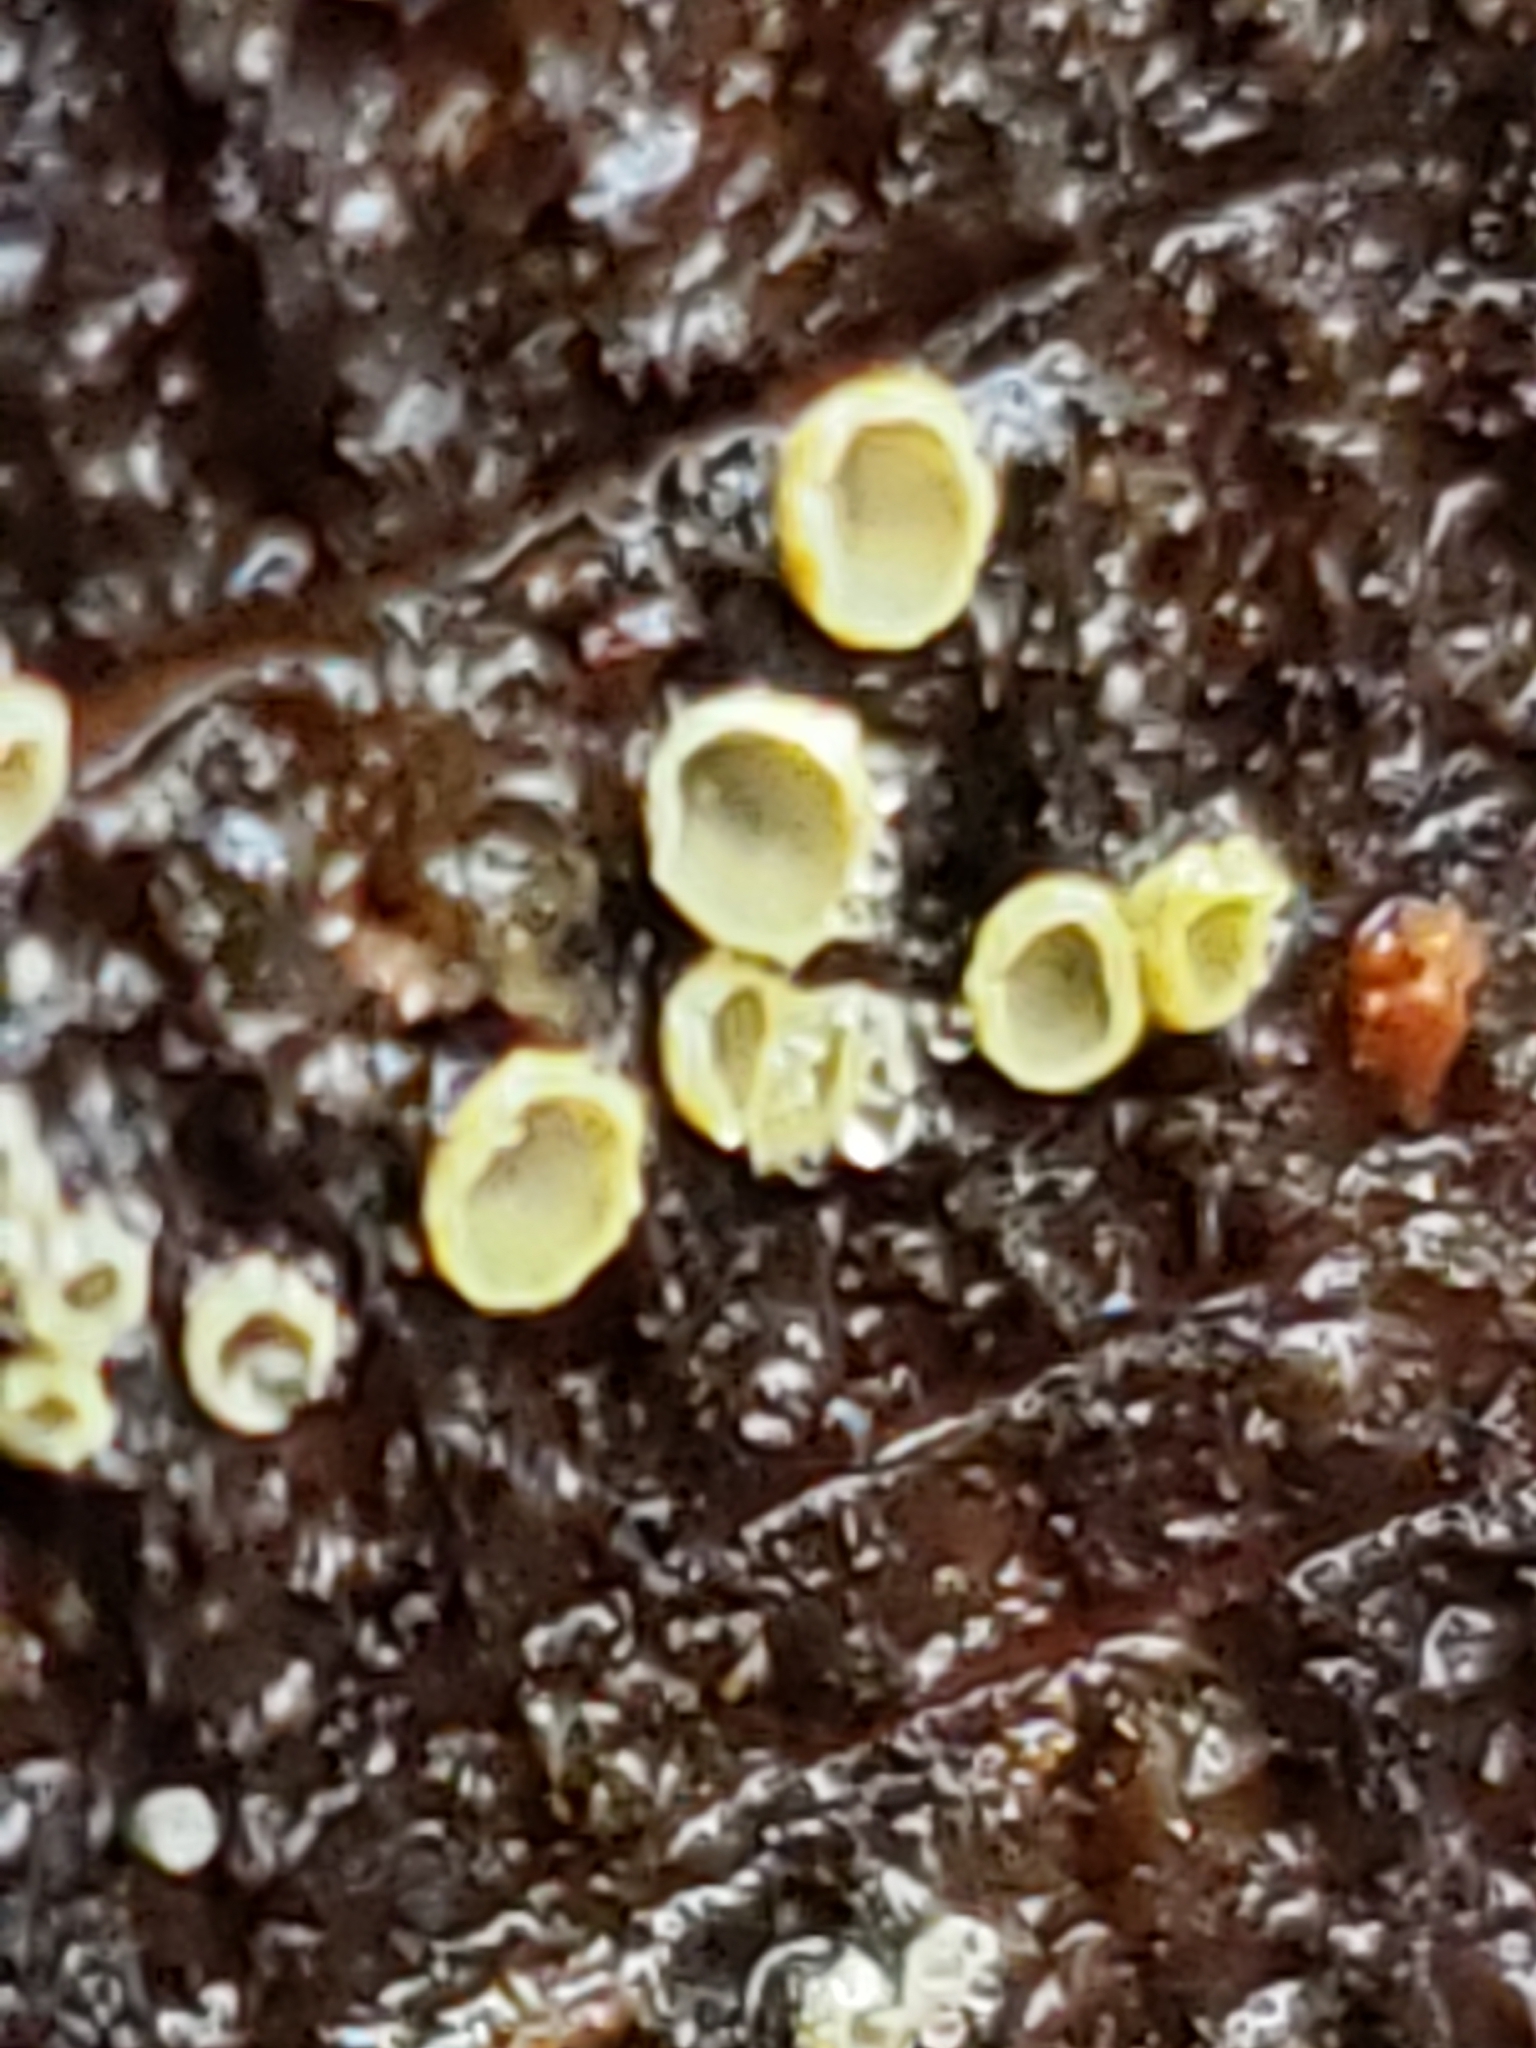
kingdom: Fungi
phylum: Ascomycota
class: Leotiomycetes
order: Helotiales
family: Chlorospleniaceae
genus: Chlorosplenium
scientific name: Chlorosplenium chlora
